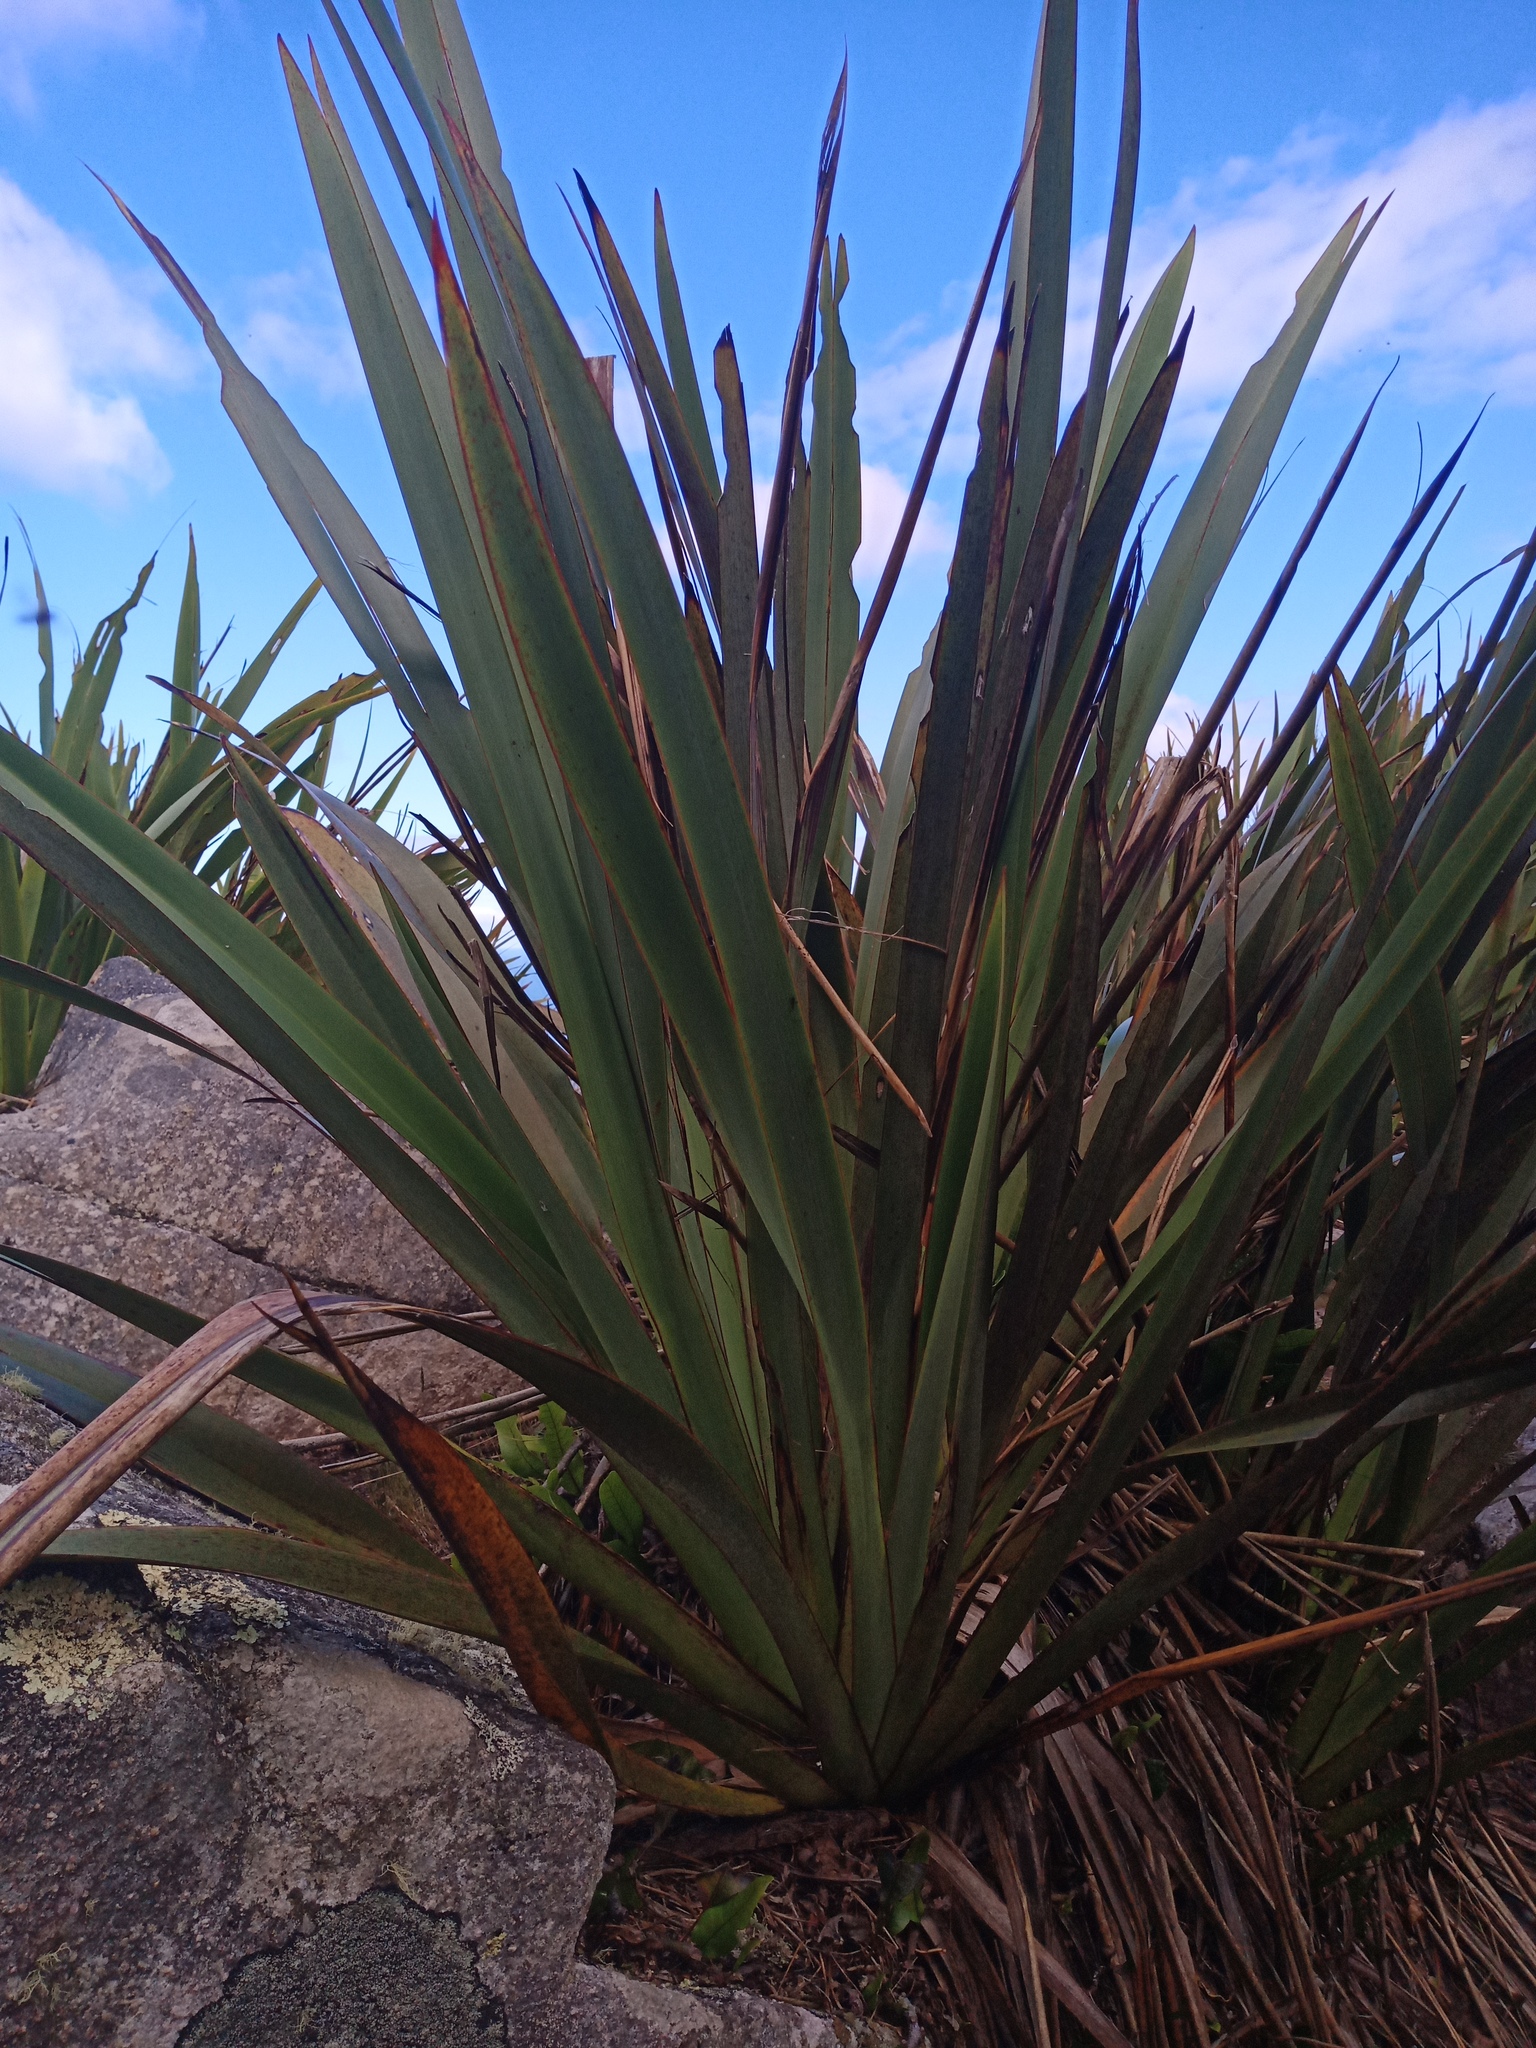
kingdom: Plantae
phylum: Tracheophyta
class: Liliopsida
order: Asparagales
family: Asphodelaceae
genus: Phormium
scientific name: Phormium tenax
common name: New zealand flax
